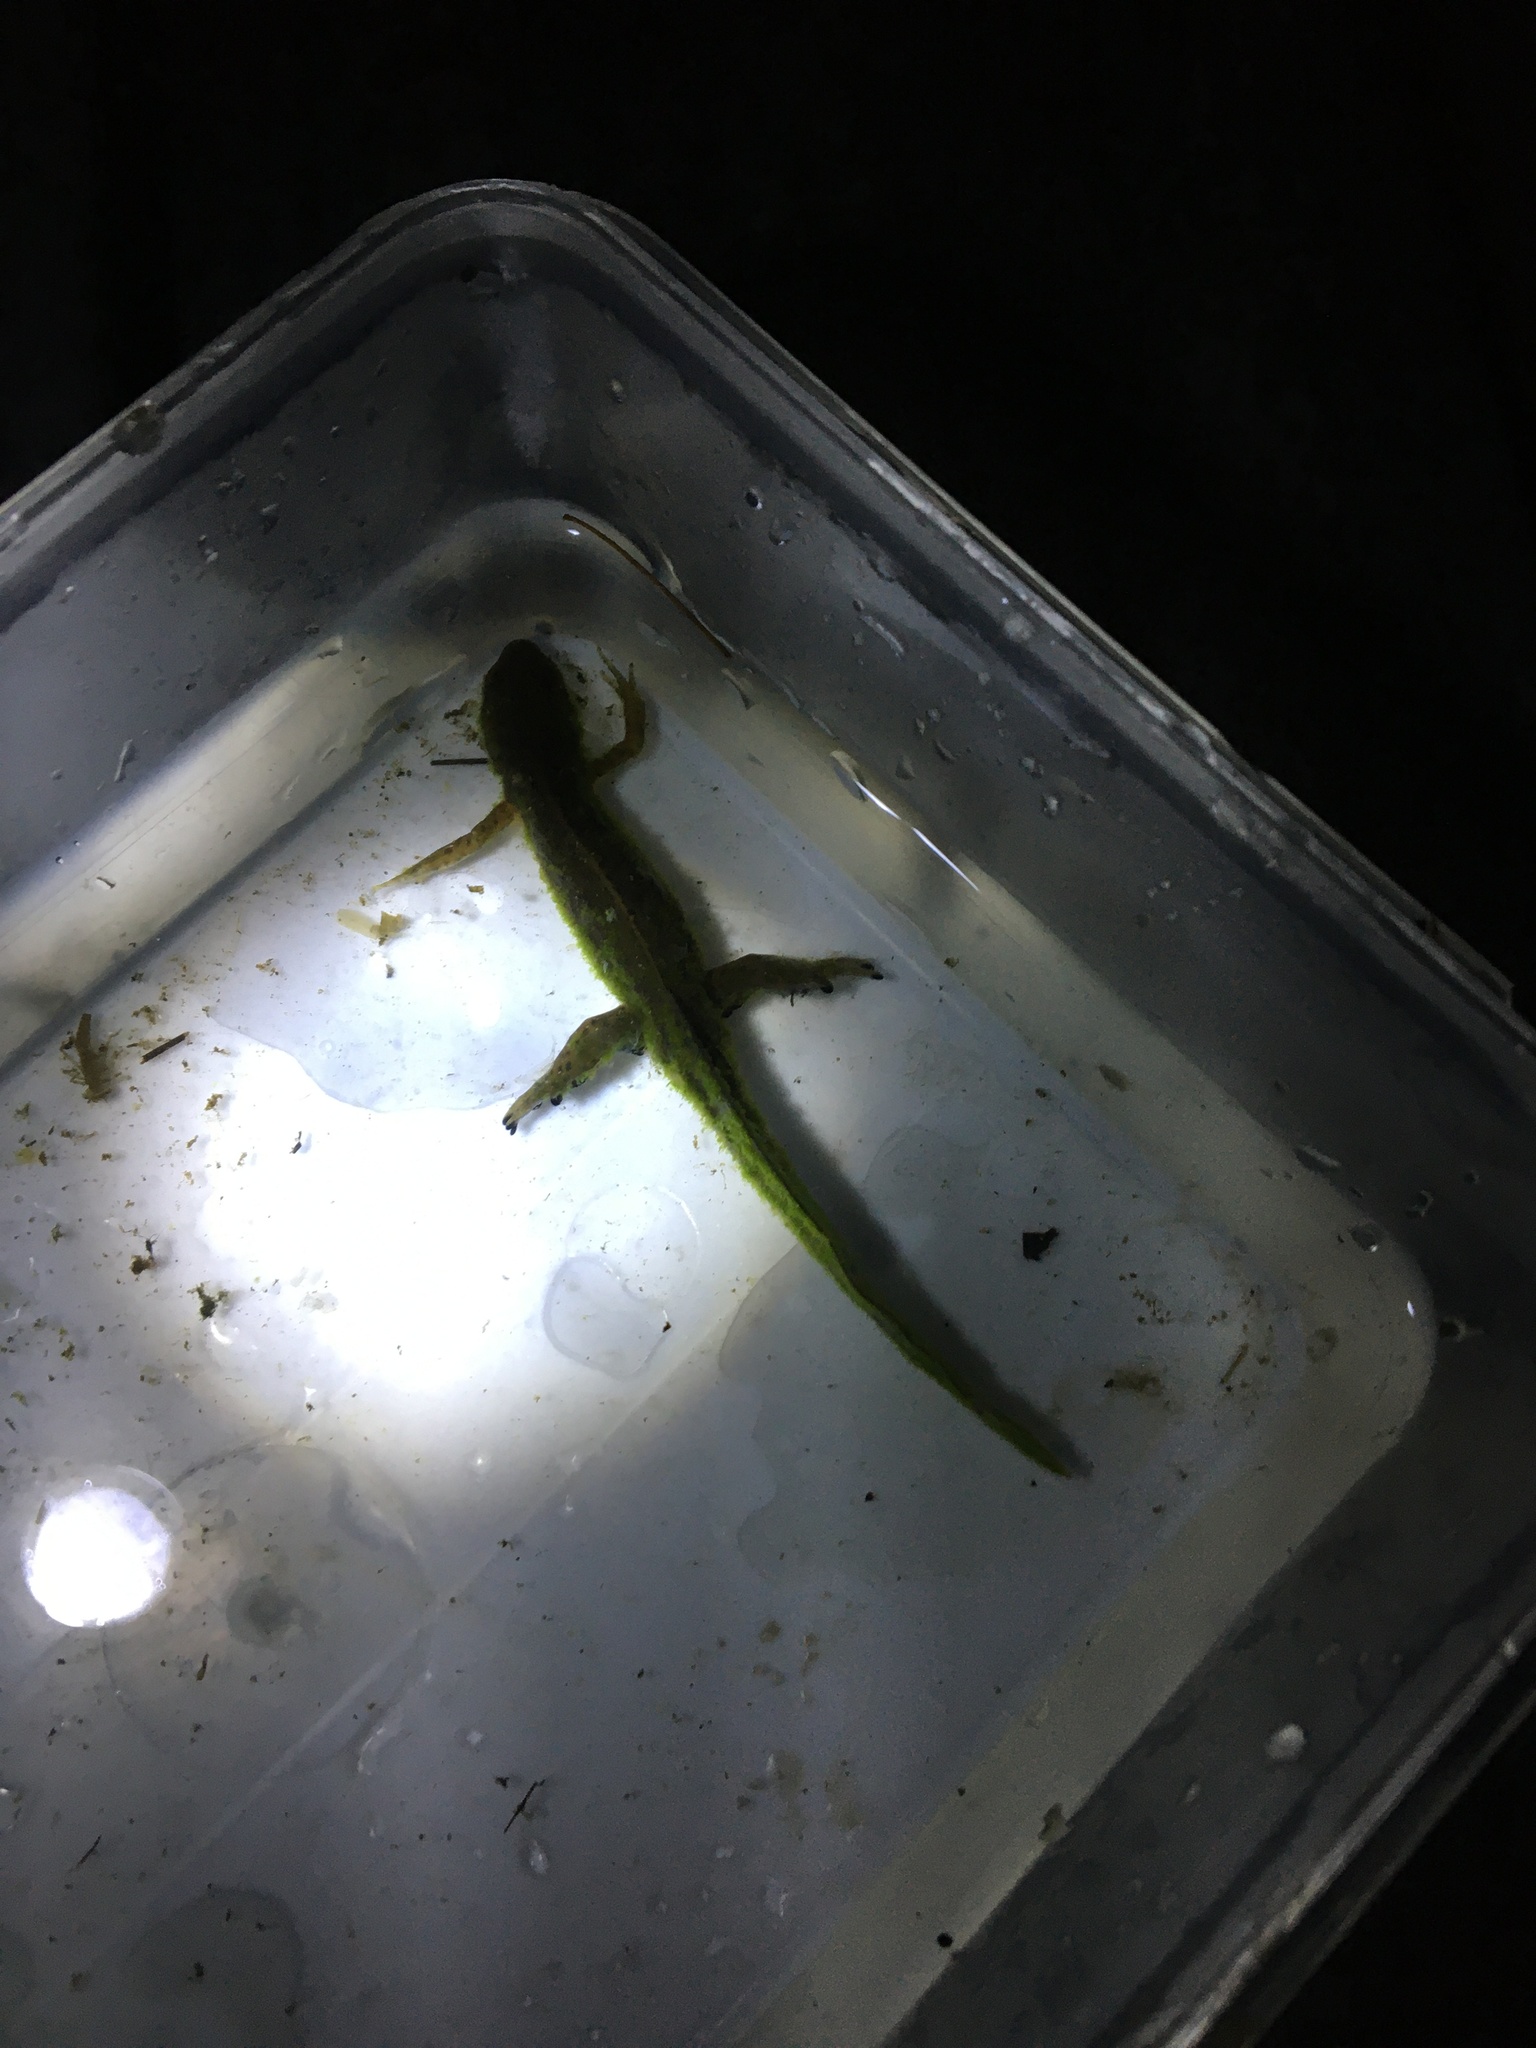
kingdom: Animalia
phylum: Chordata
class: Amphibia
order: Caudata
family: Salamandridae
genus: Notophthalmus
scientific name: Notophthalmus viridescens
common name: Eastern newt
